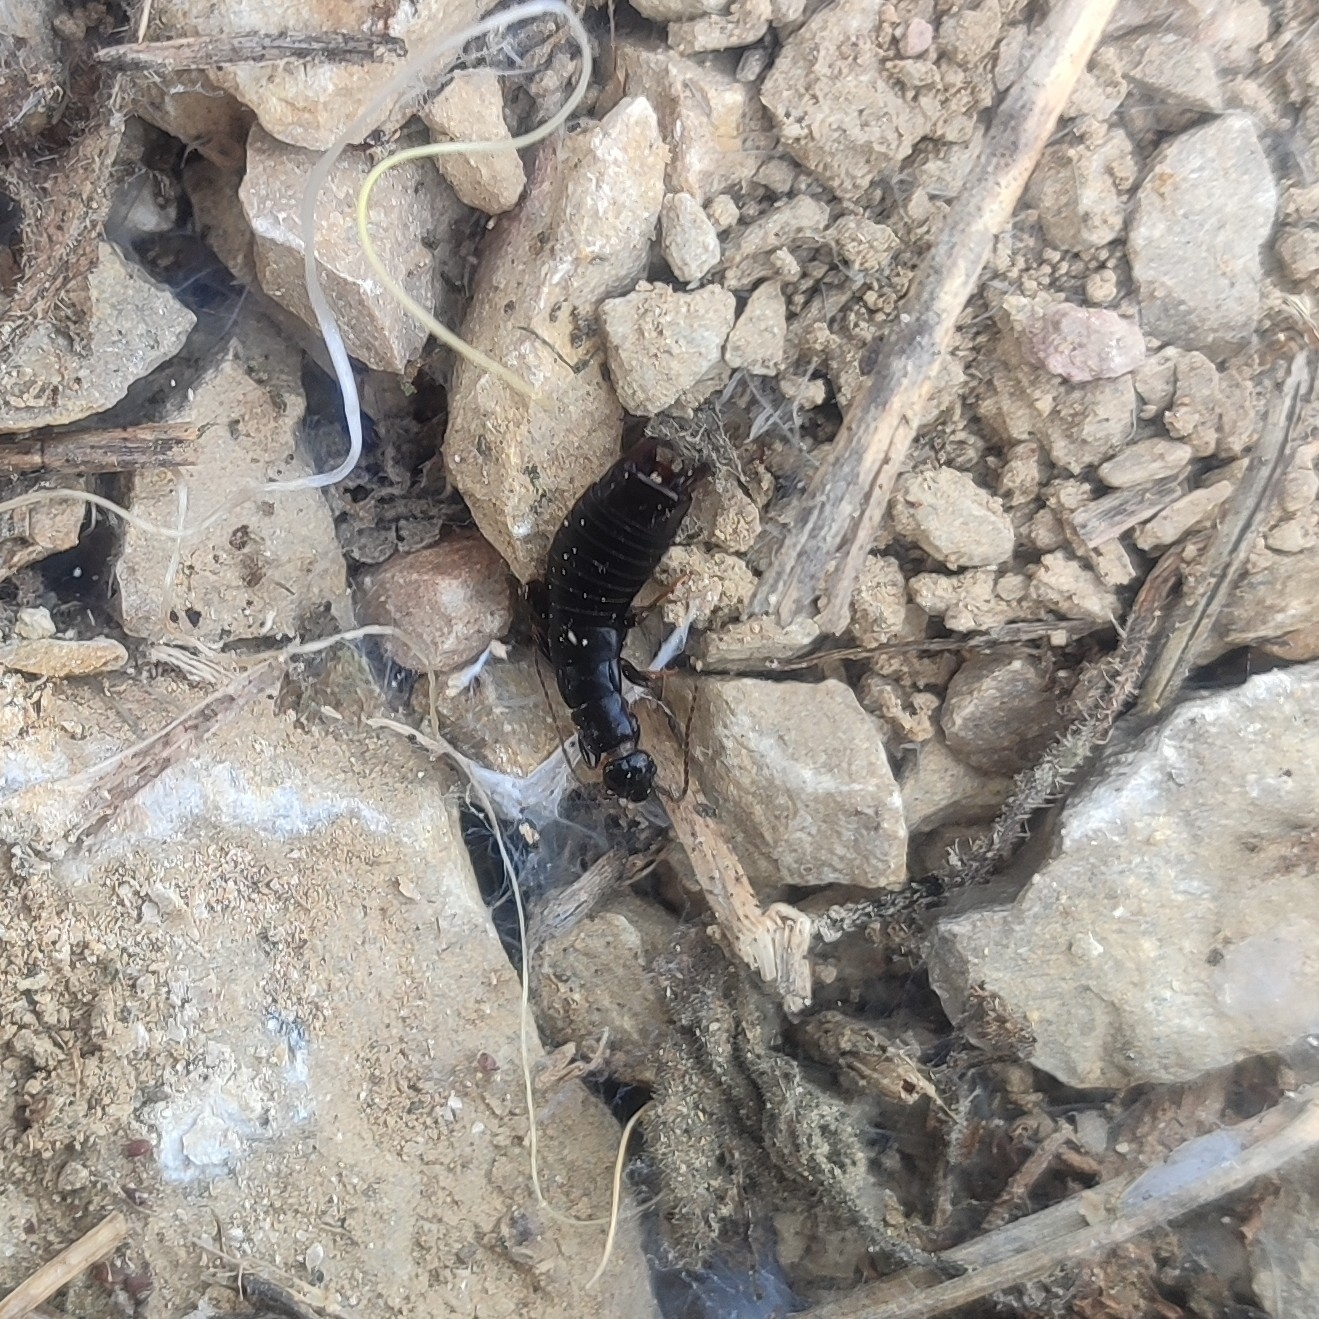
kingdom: Animalia
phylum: Arthropoda
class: Insecta
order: Dermaptera
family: Anisolabididae
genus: Euborellia
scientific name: Euborellia moesta
